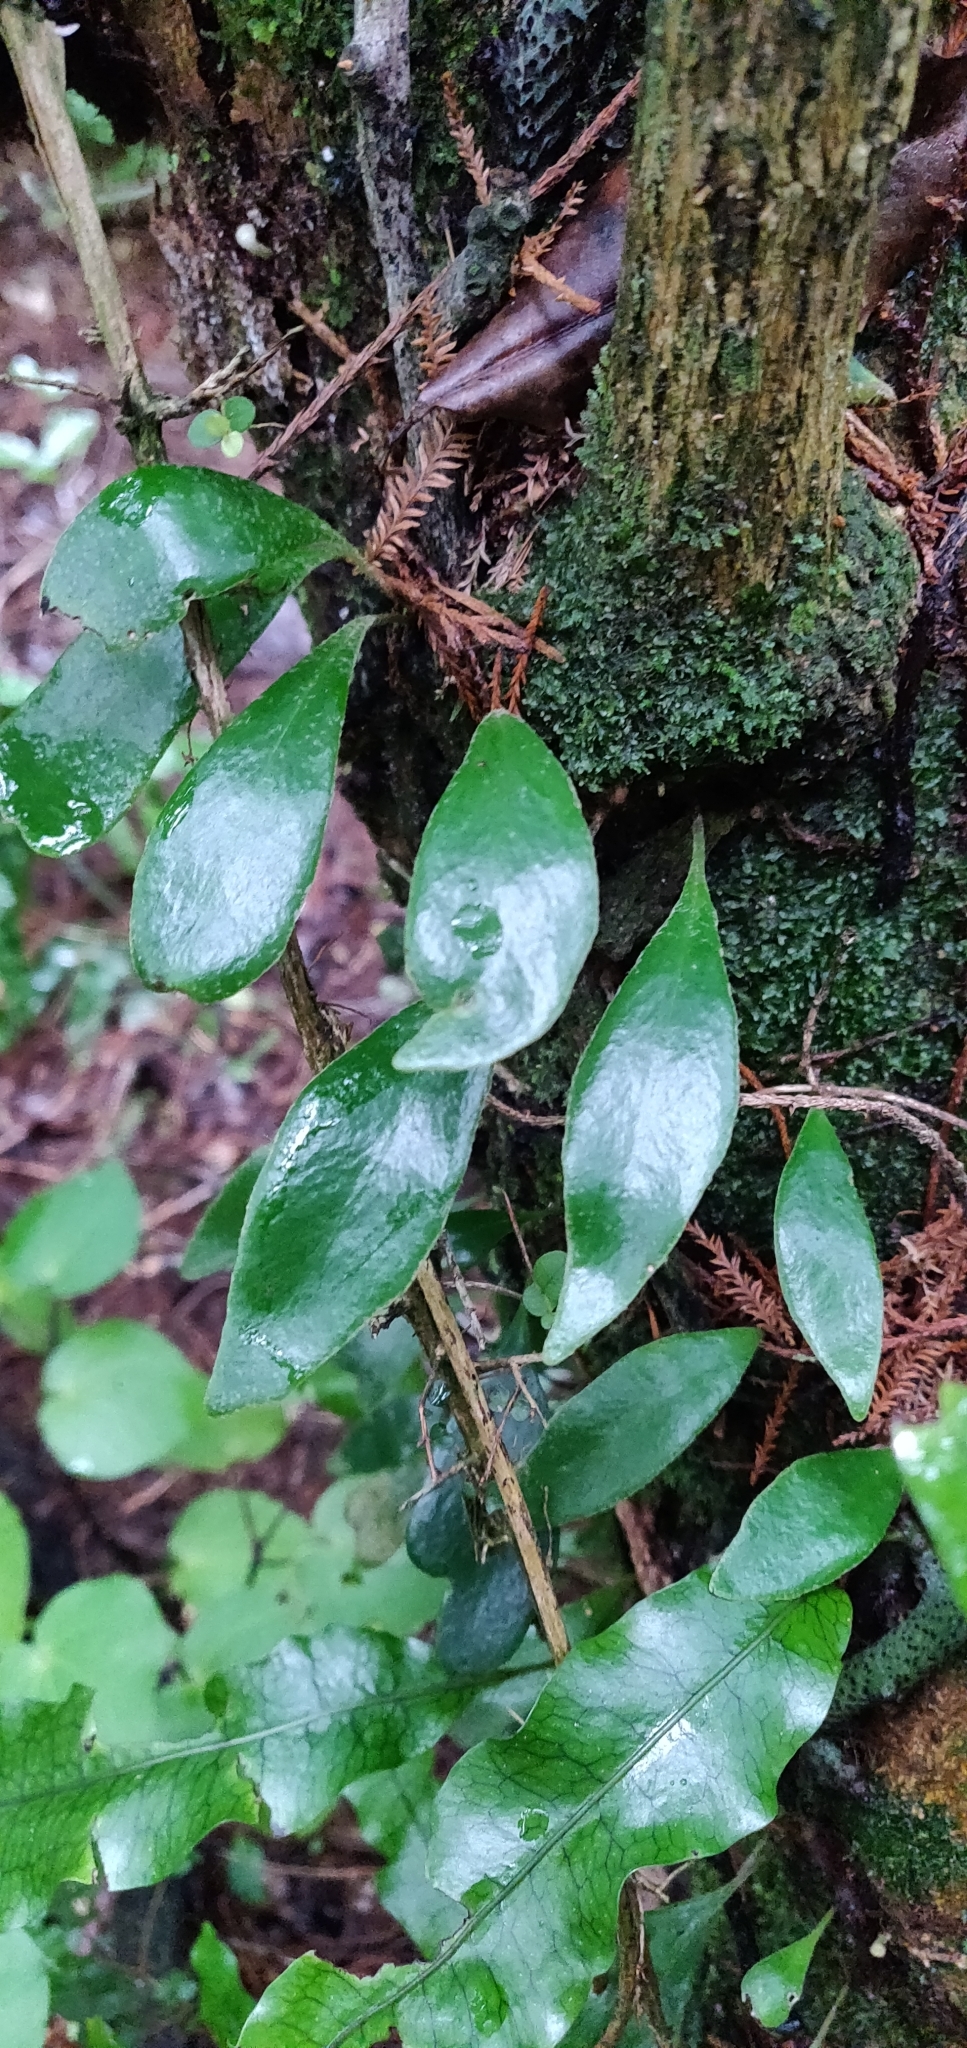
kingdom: Plantae
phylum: Tracheophyta
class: Polypodiopsida
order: Polypodiales
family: Polypodiaceae
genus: Pyrrosia
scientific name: Pyrrosia eleagnifolia
